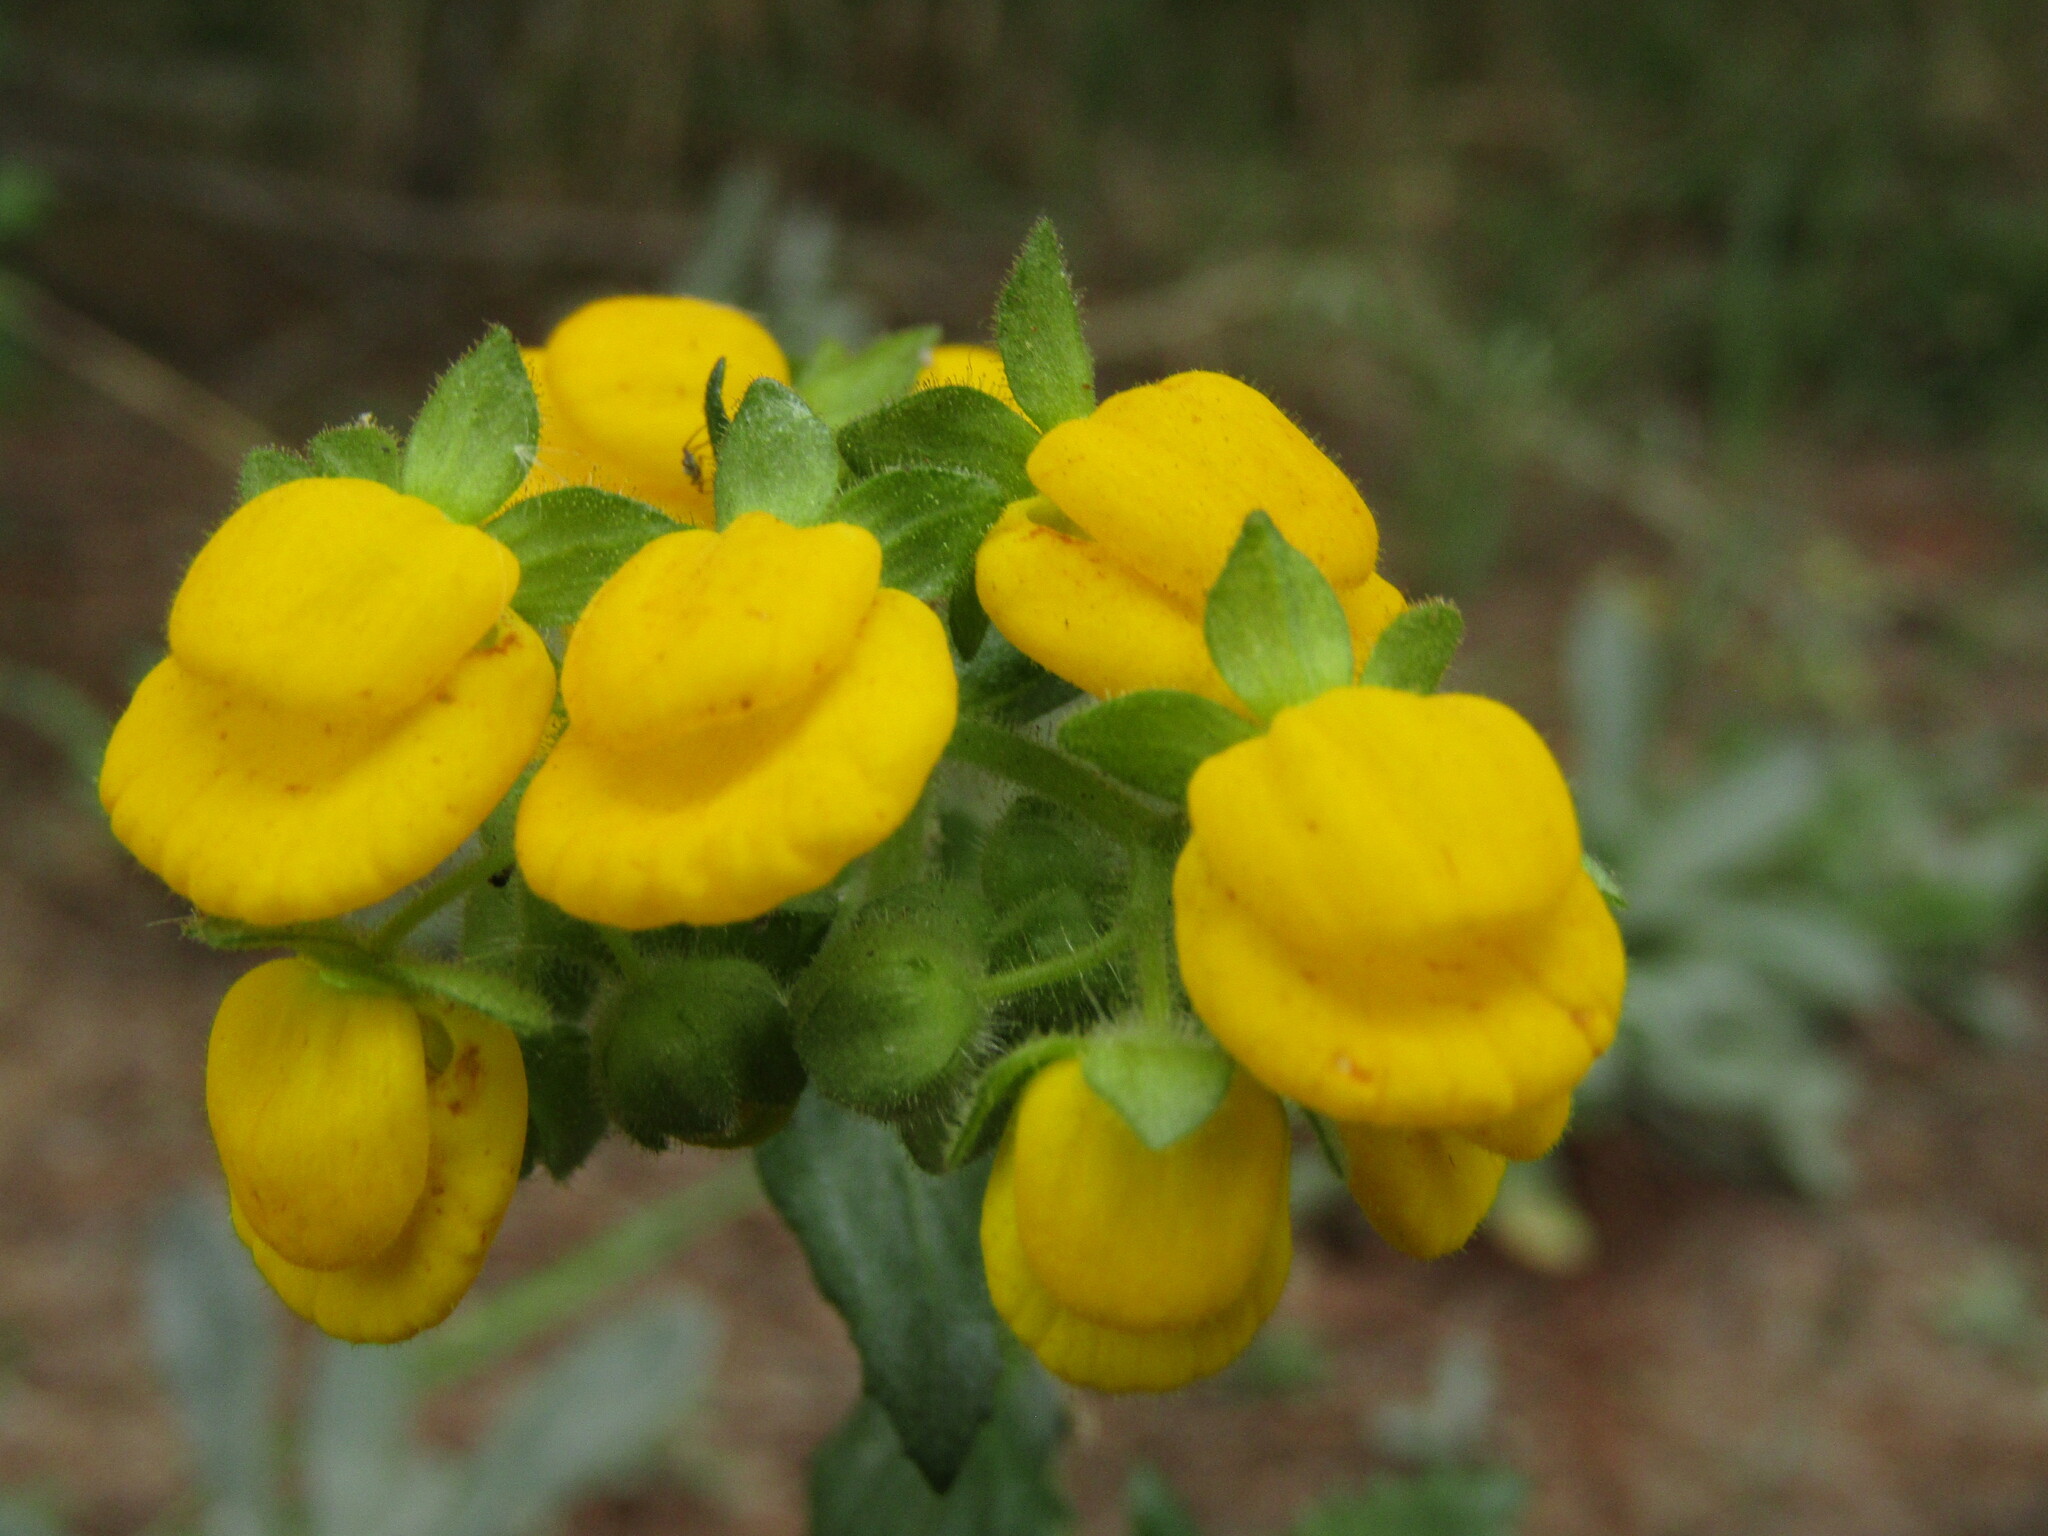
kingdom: Plantae
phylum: Tracheophyta
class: Magnoliopsida
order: Lamiales
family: Calceolariaceae
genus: Calceolaria
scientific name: Calceolaria dentata
